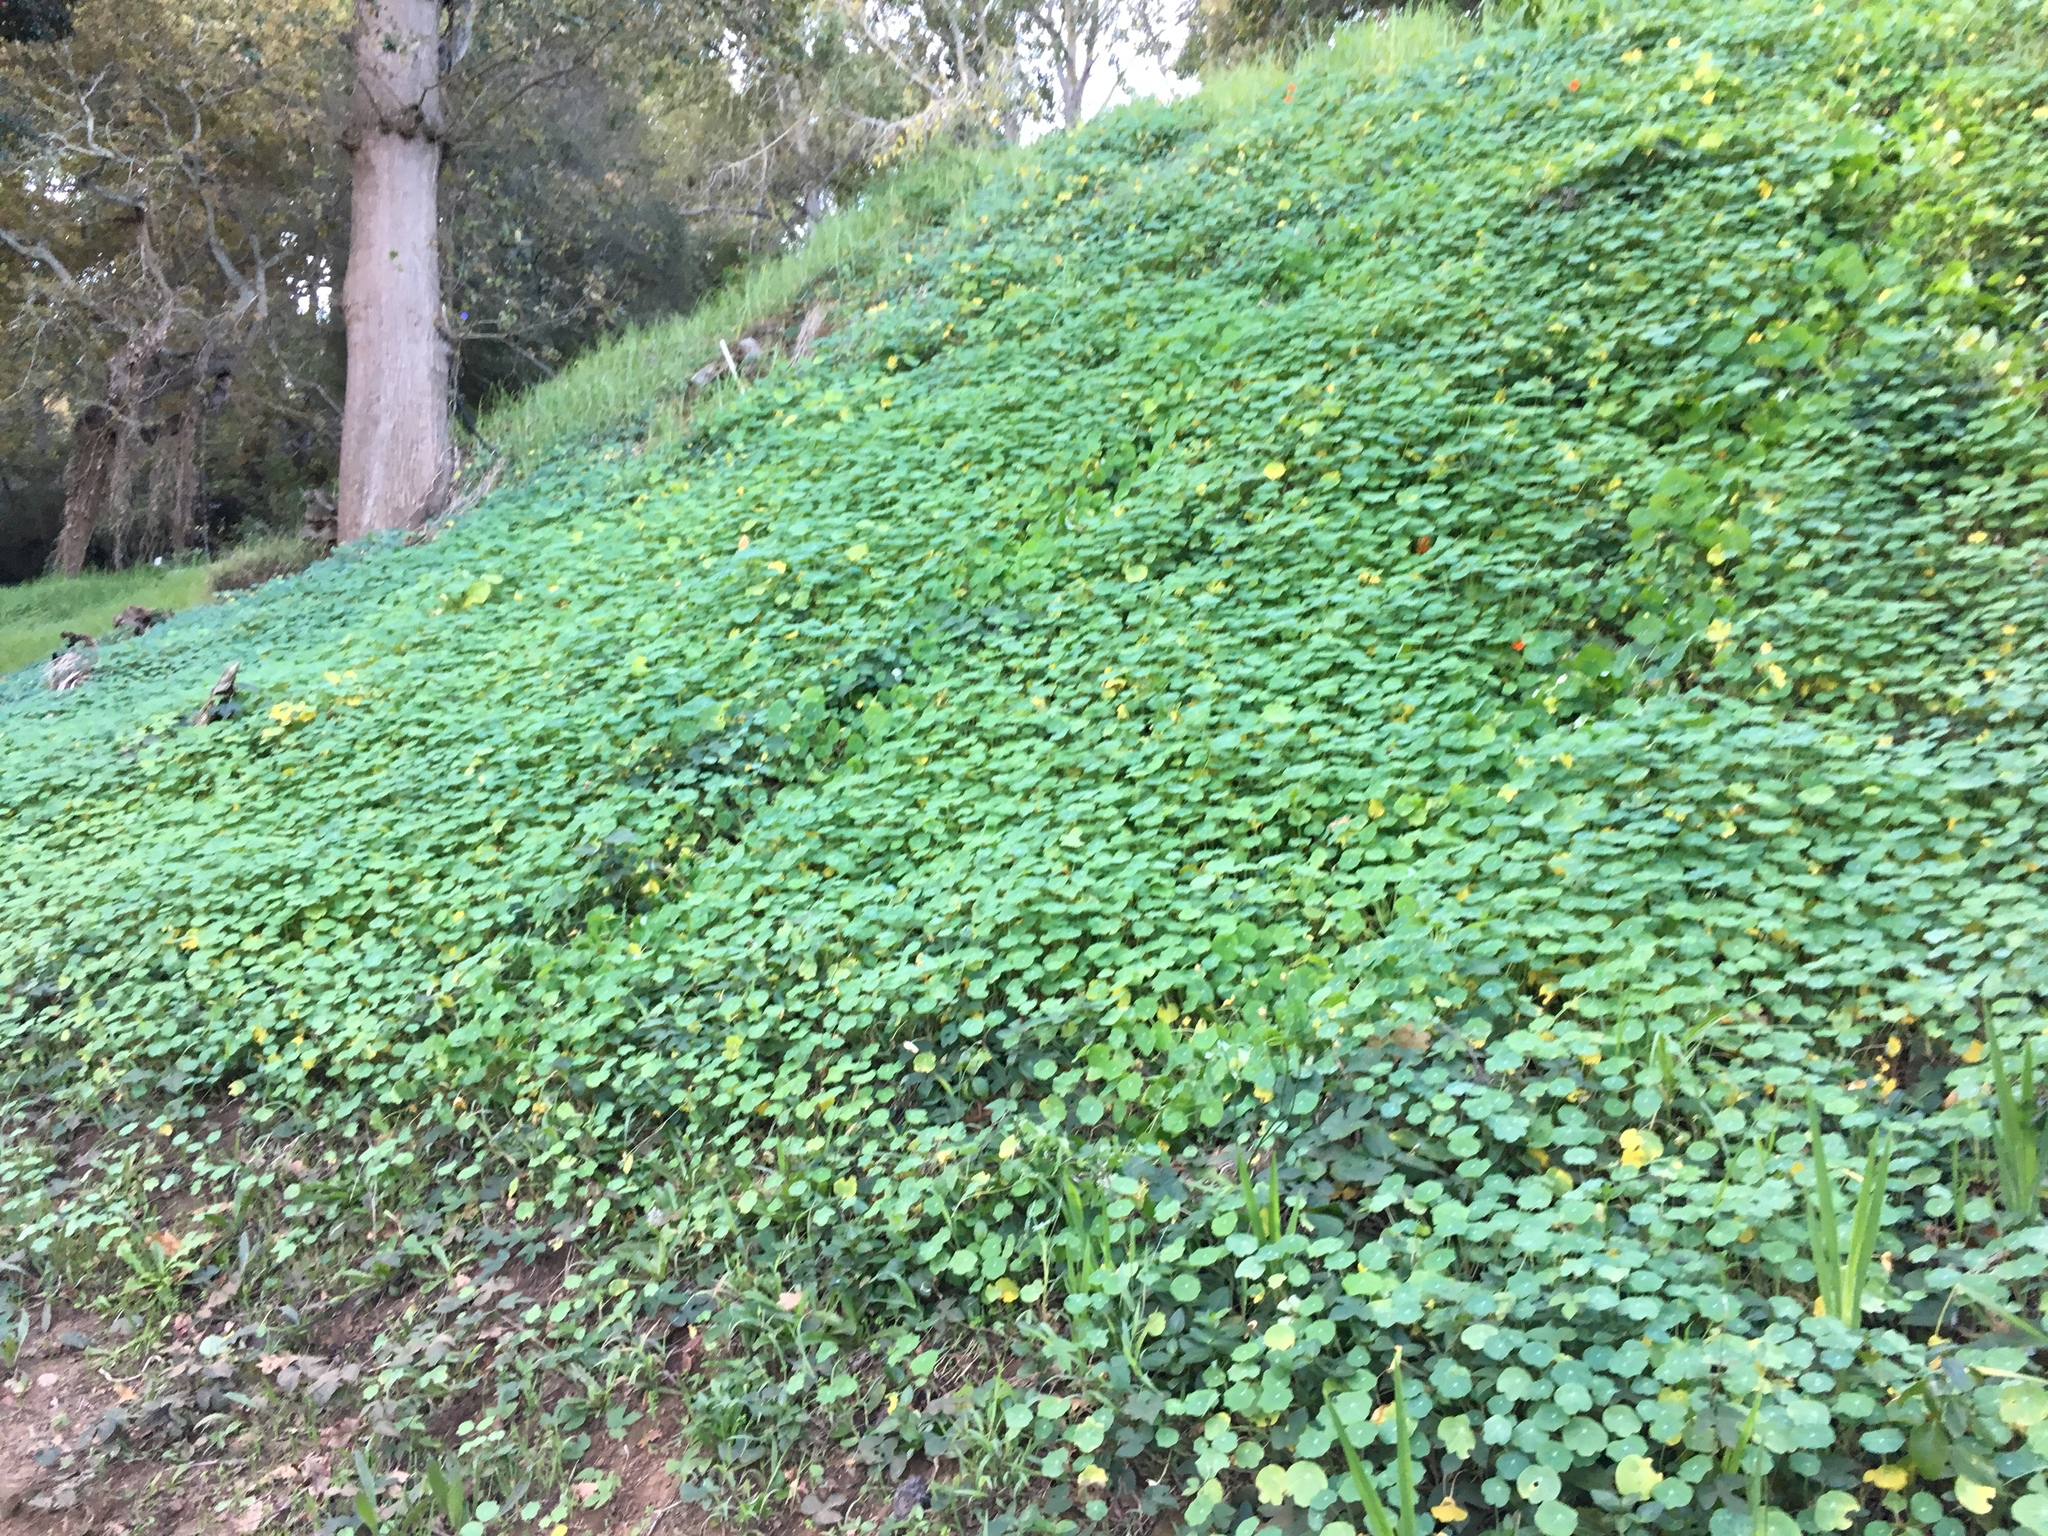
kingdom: Plantae
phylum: Tracheophyta
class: Magnoliopsida
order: Brassicales
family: Tropaeolaceae
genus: Tropaeolum
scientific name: Tropaeolum majus
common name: Nasturtium
